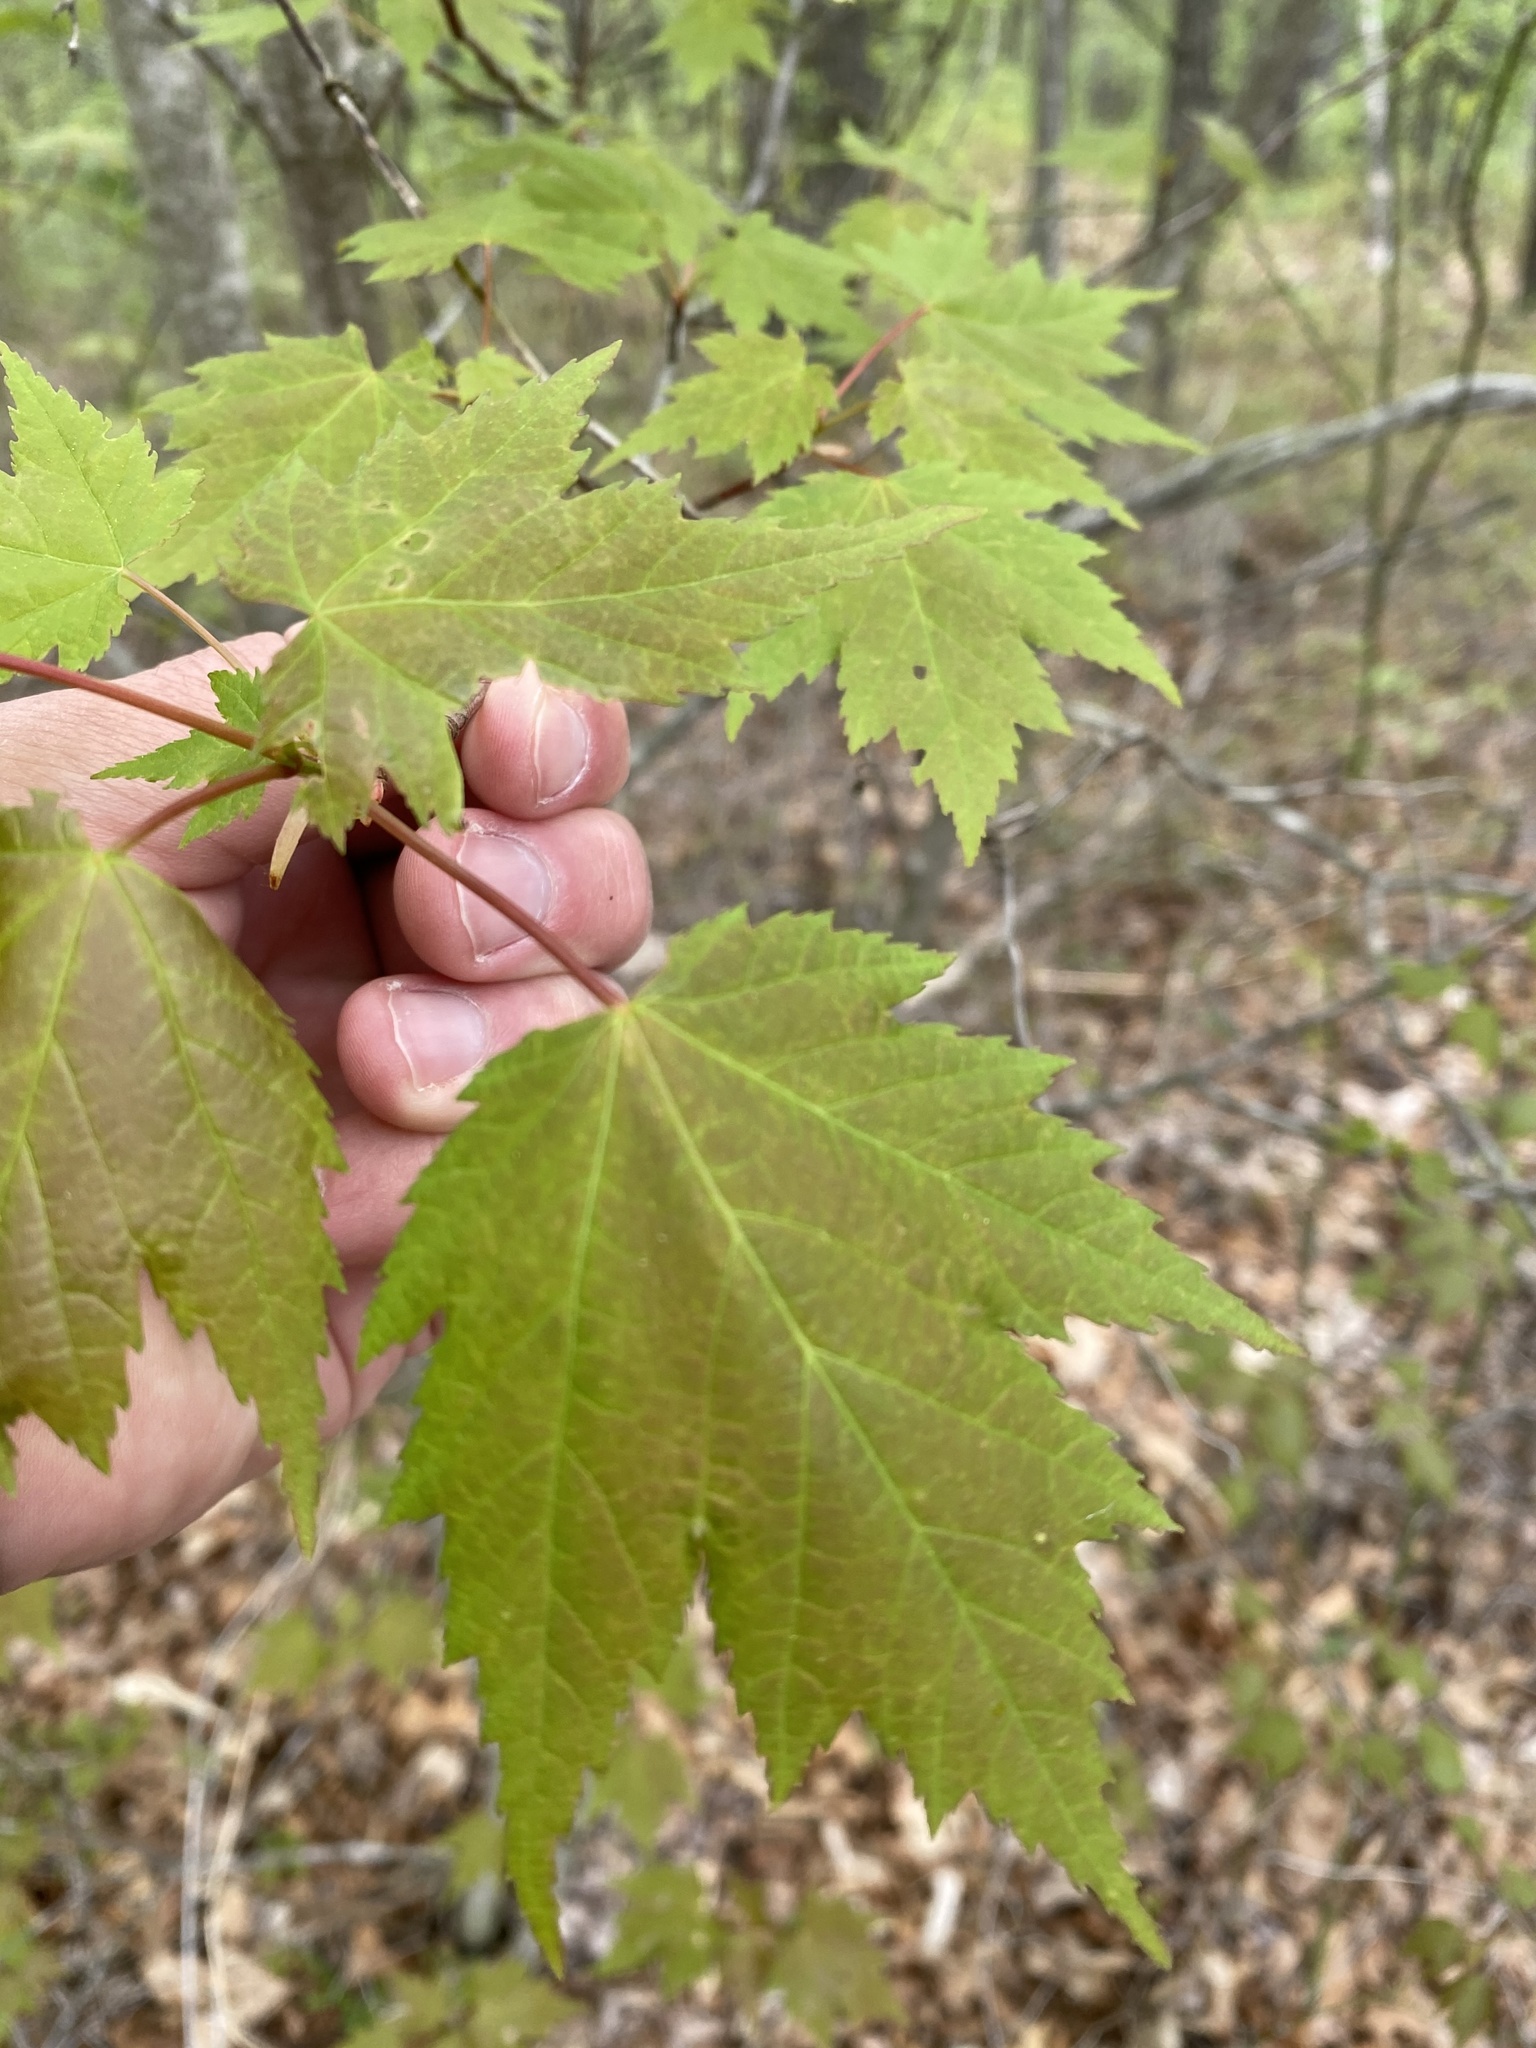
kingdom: Plantae
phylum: Tracheophyta
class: Magnoliopsida
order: Sapindales
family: Sapindaceae
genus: Acer
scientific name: Acer rubrum
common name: Red maple
